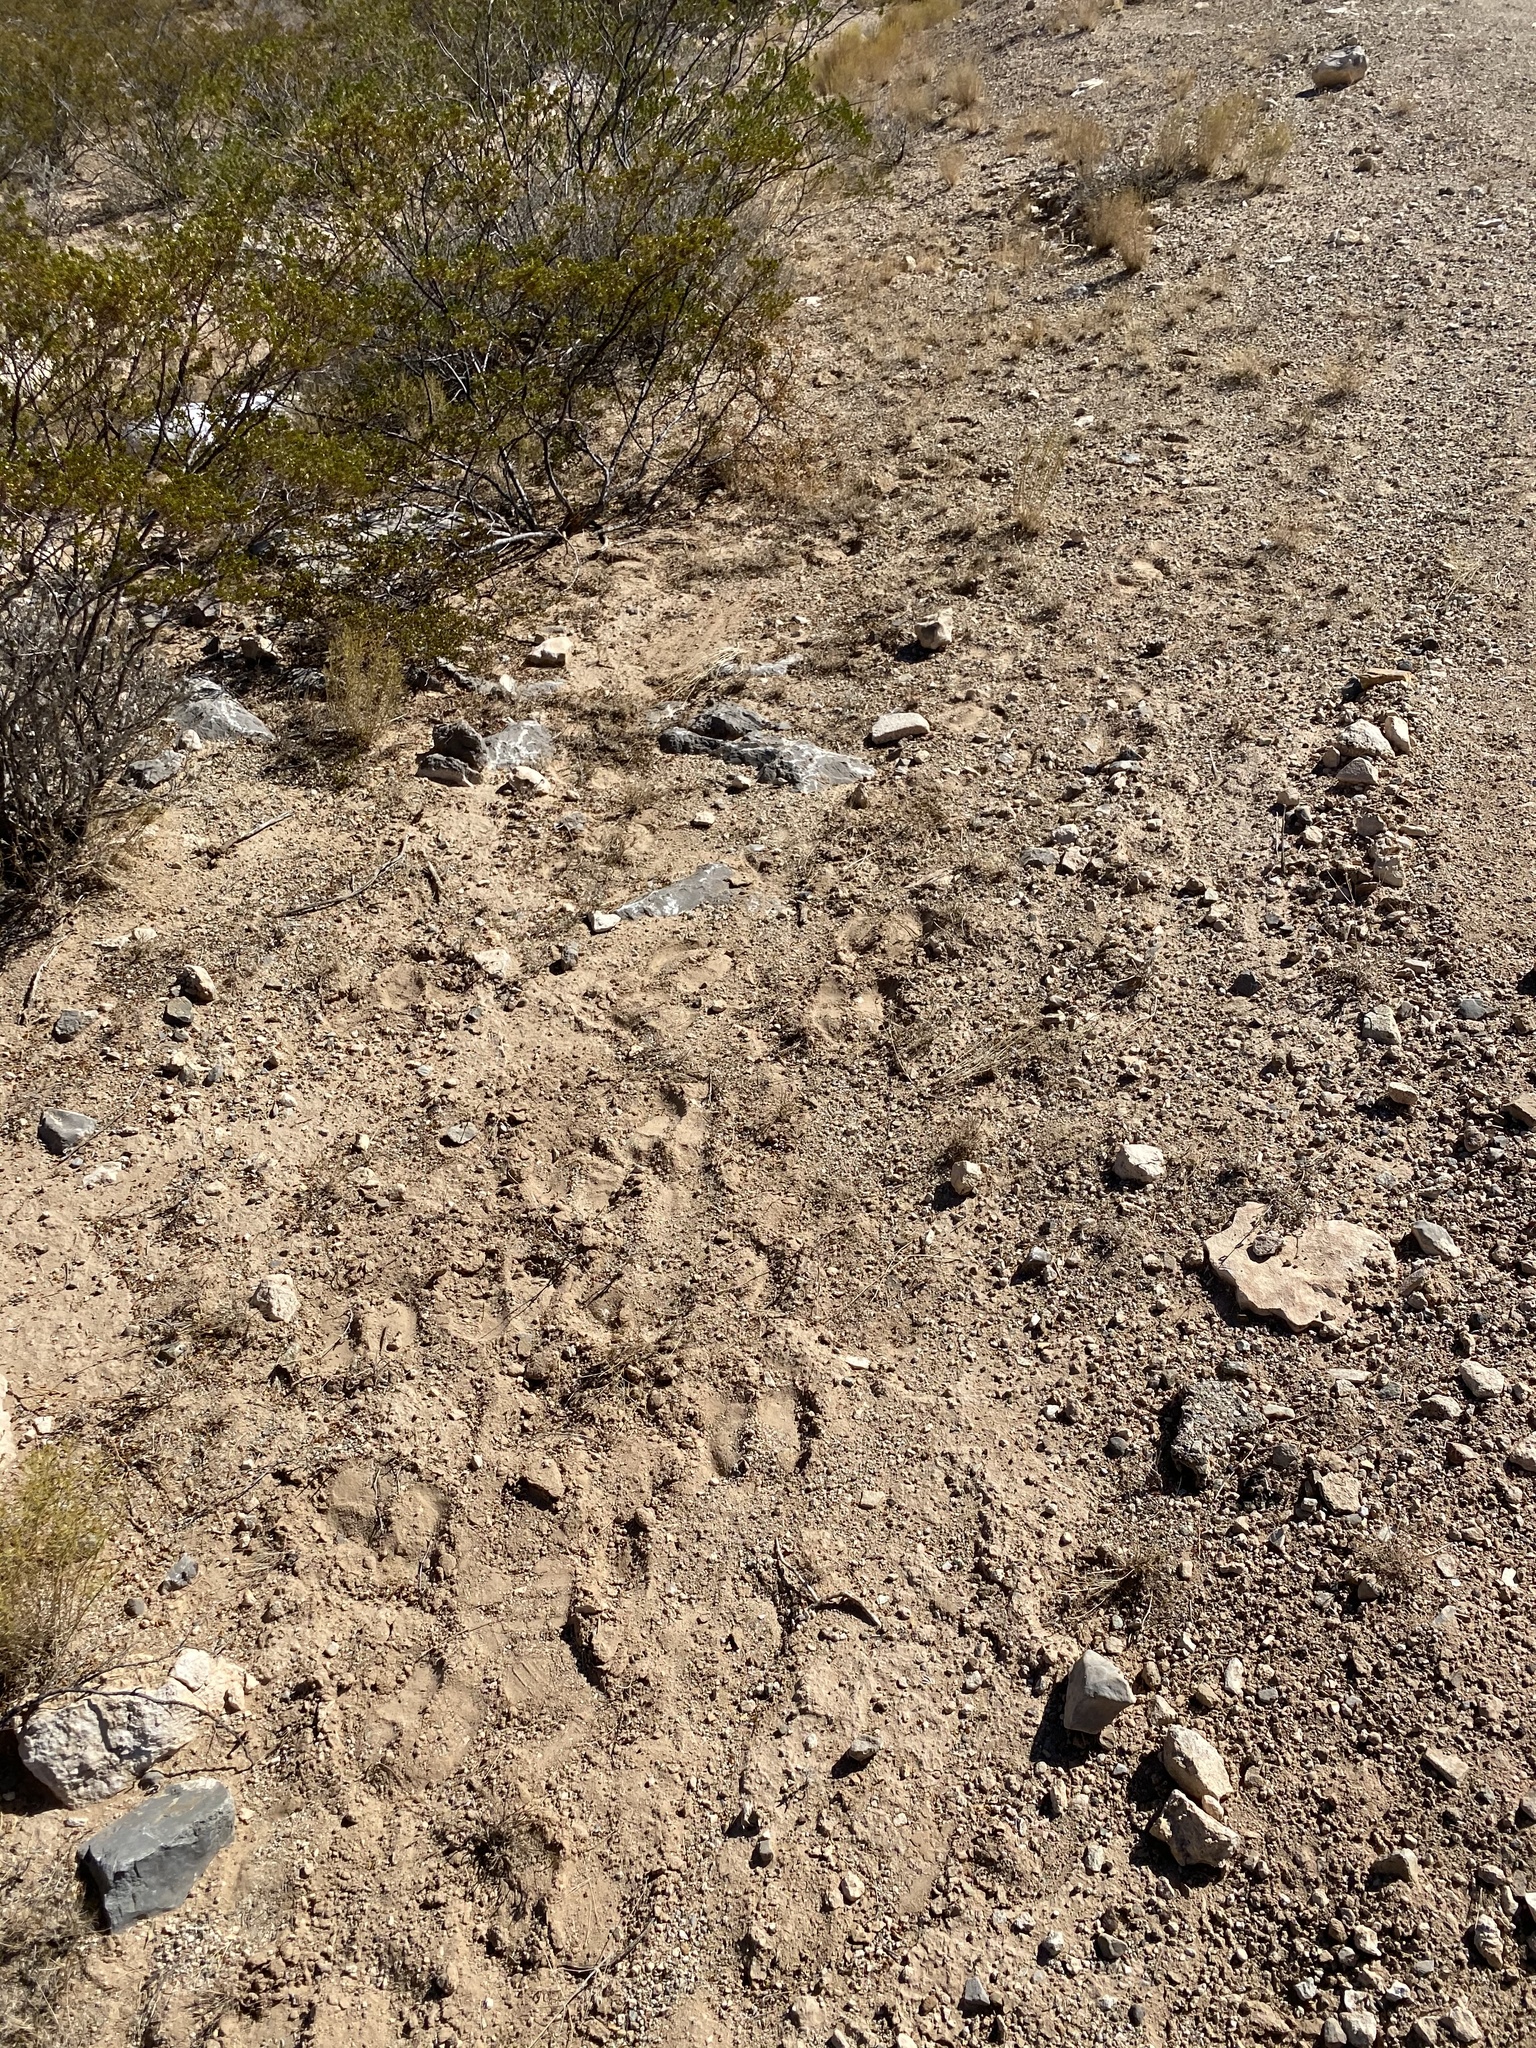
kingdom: Animalia
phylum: Chordata
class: Mammalia
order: Artiodactyla
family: Bovidae
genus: Oryx
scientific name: Oryx gazella
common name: Gemsbok
